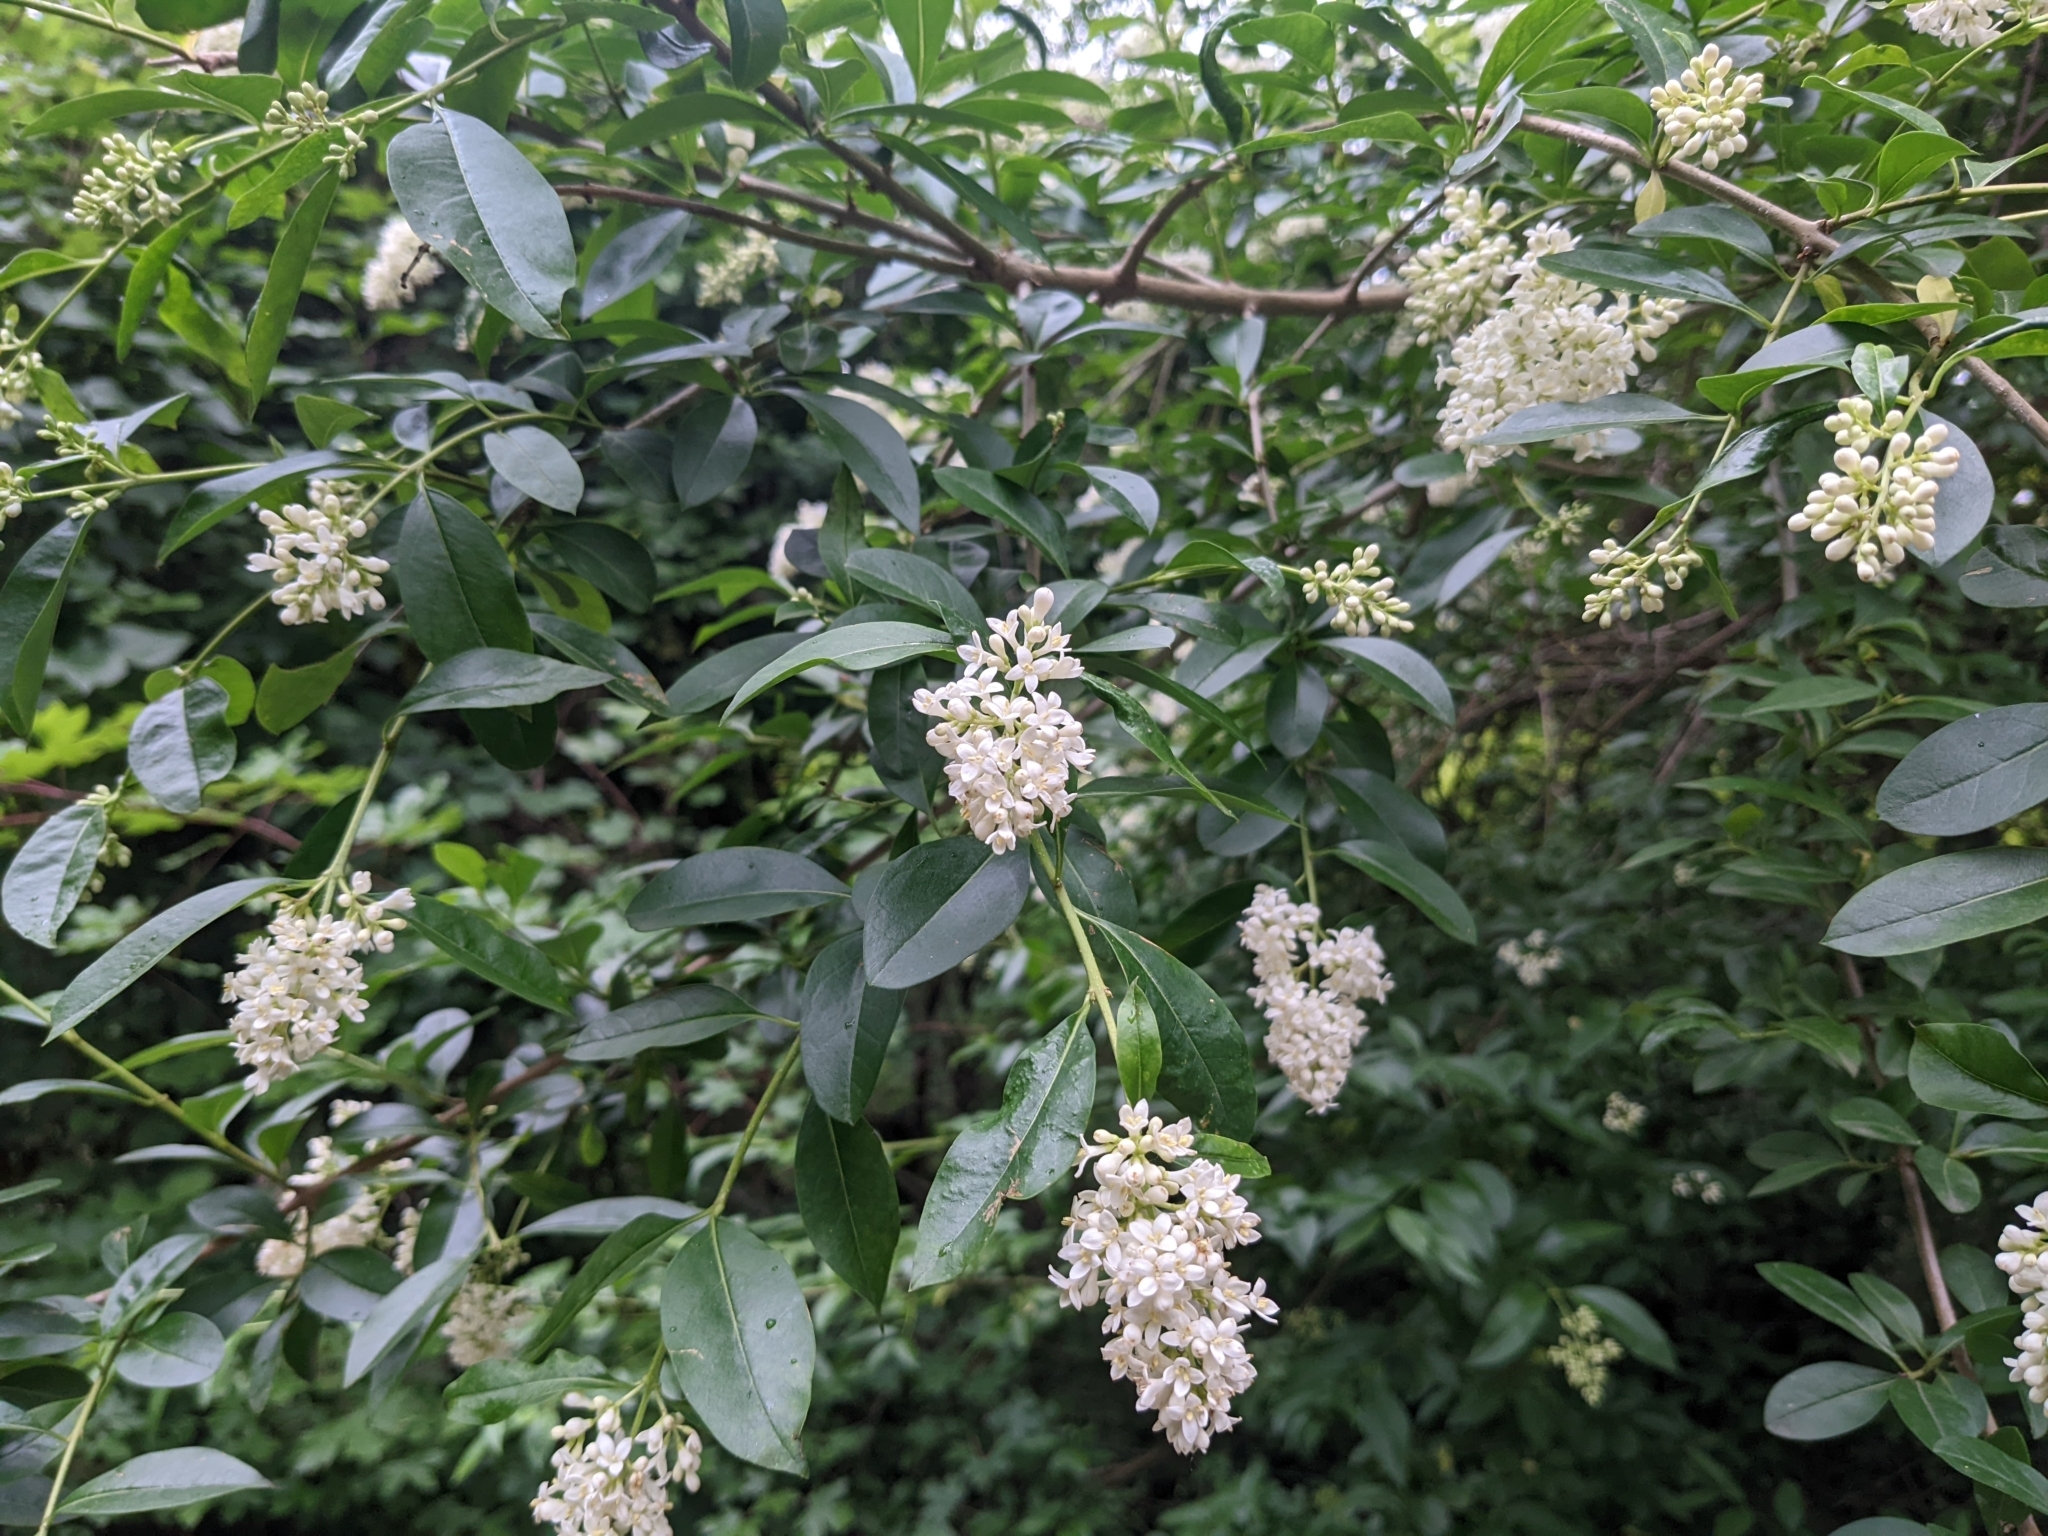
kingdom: Plantae
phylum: Tracheophyta
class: Magnoliopsida
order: Lamiales
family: Oleaceae
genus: Ligustrum
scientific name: Ligustrum vulgare
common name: Wild privet
